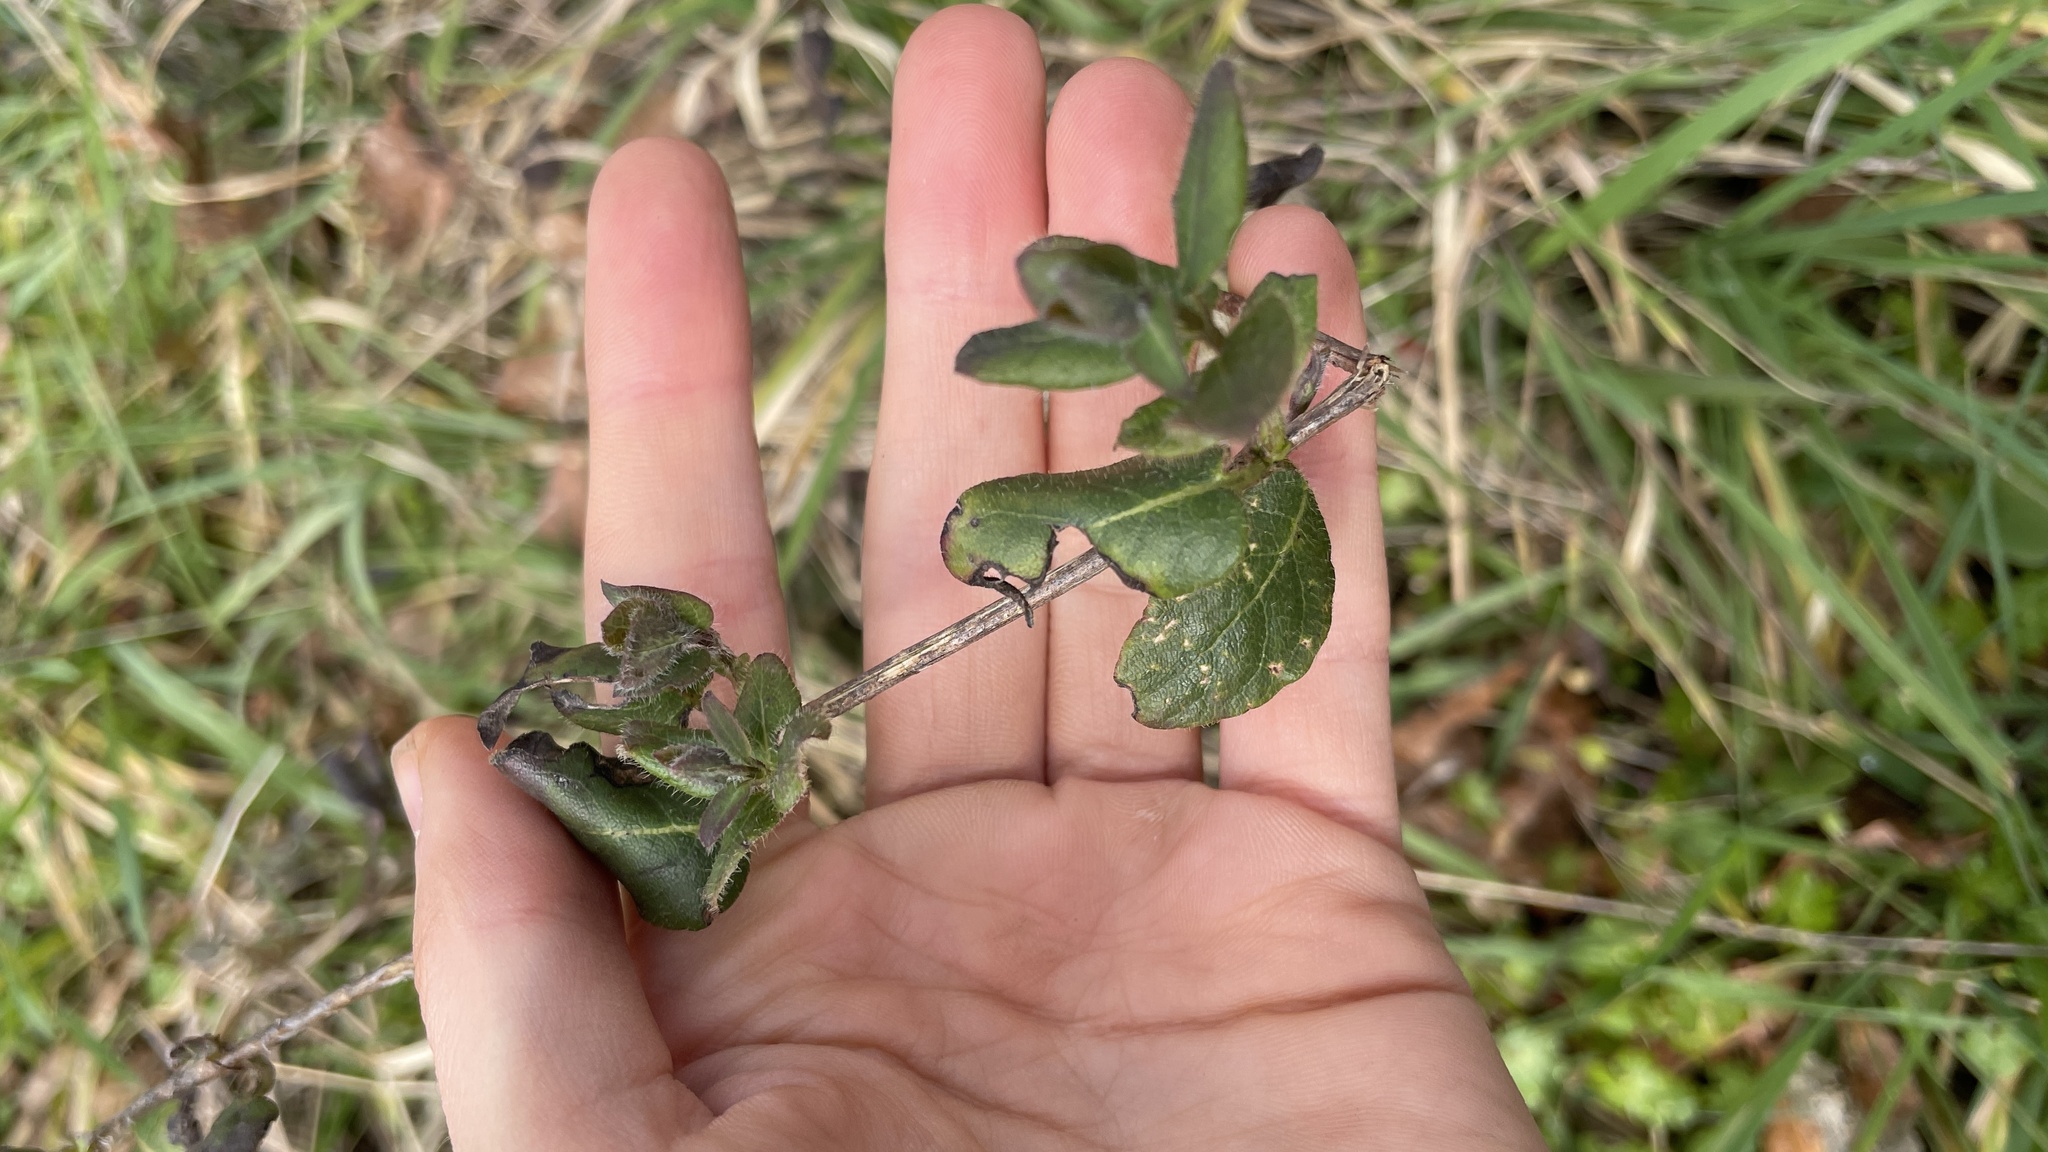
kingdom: Plantae
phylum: Tracheophyta
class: Magnoliopsida
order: Dipsacales
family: Caprifoliaceae
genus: Lonicera
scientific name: Lonicera hispidula
